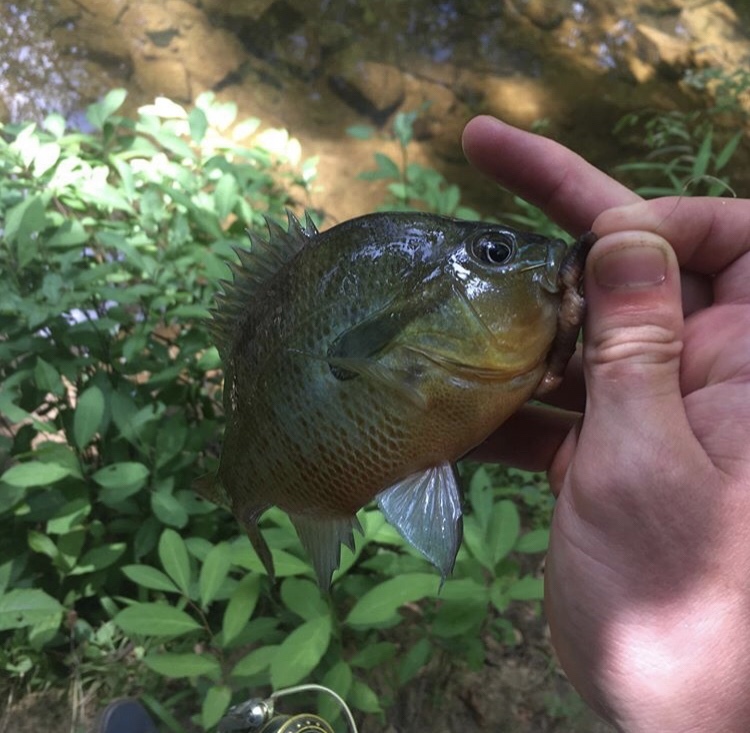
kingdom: Animalia
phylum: Chordata
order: Perciformes
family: Centrarchidae
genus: Lepomis
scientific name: Lepomis auritus
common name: Redbreast sunfish
